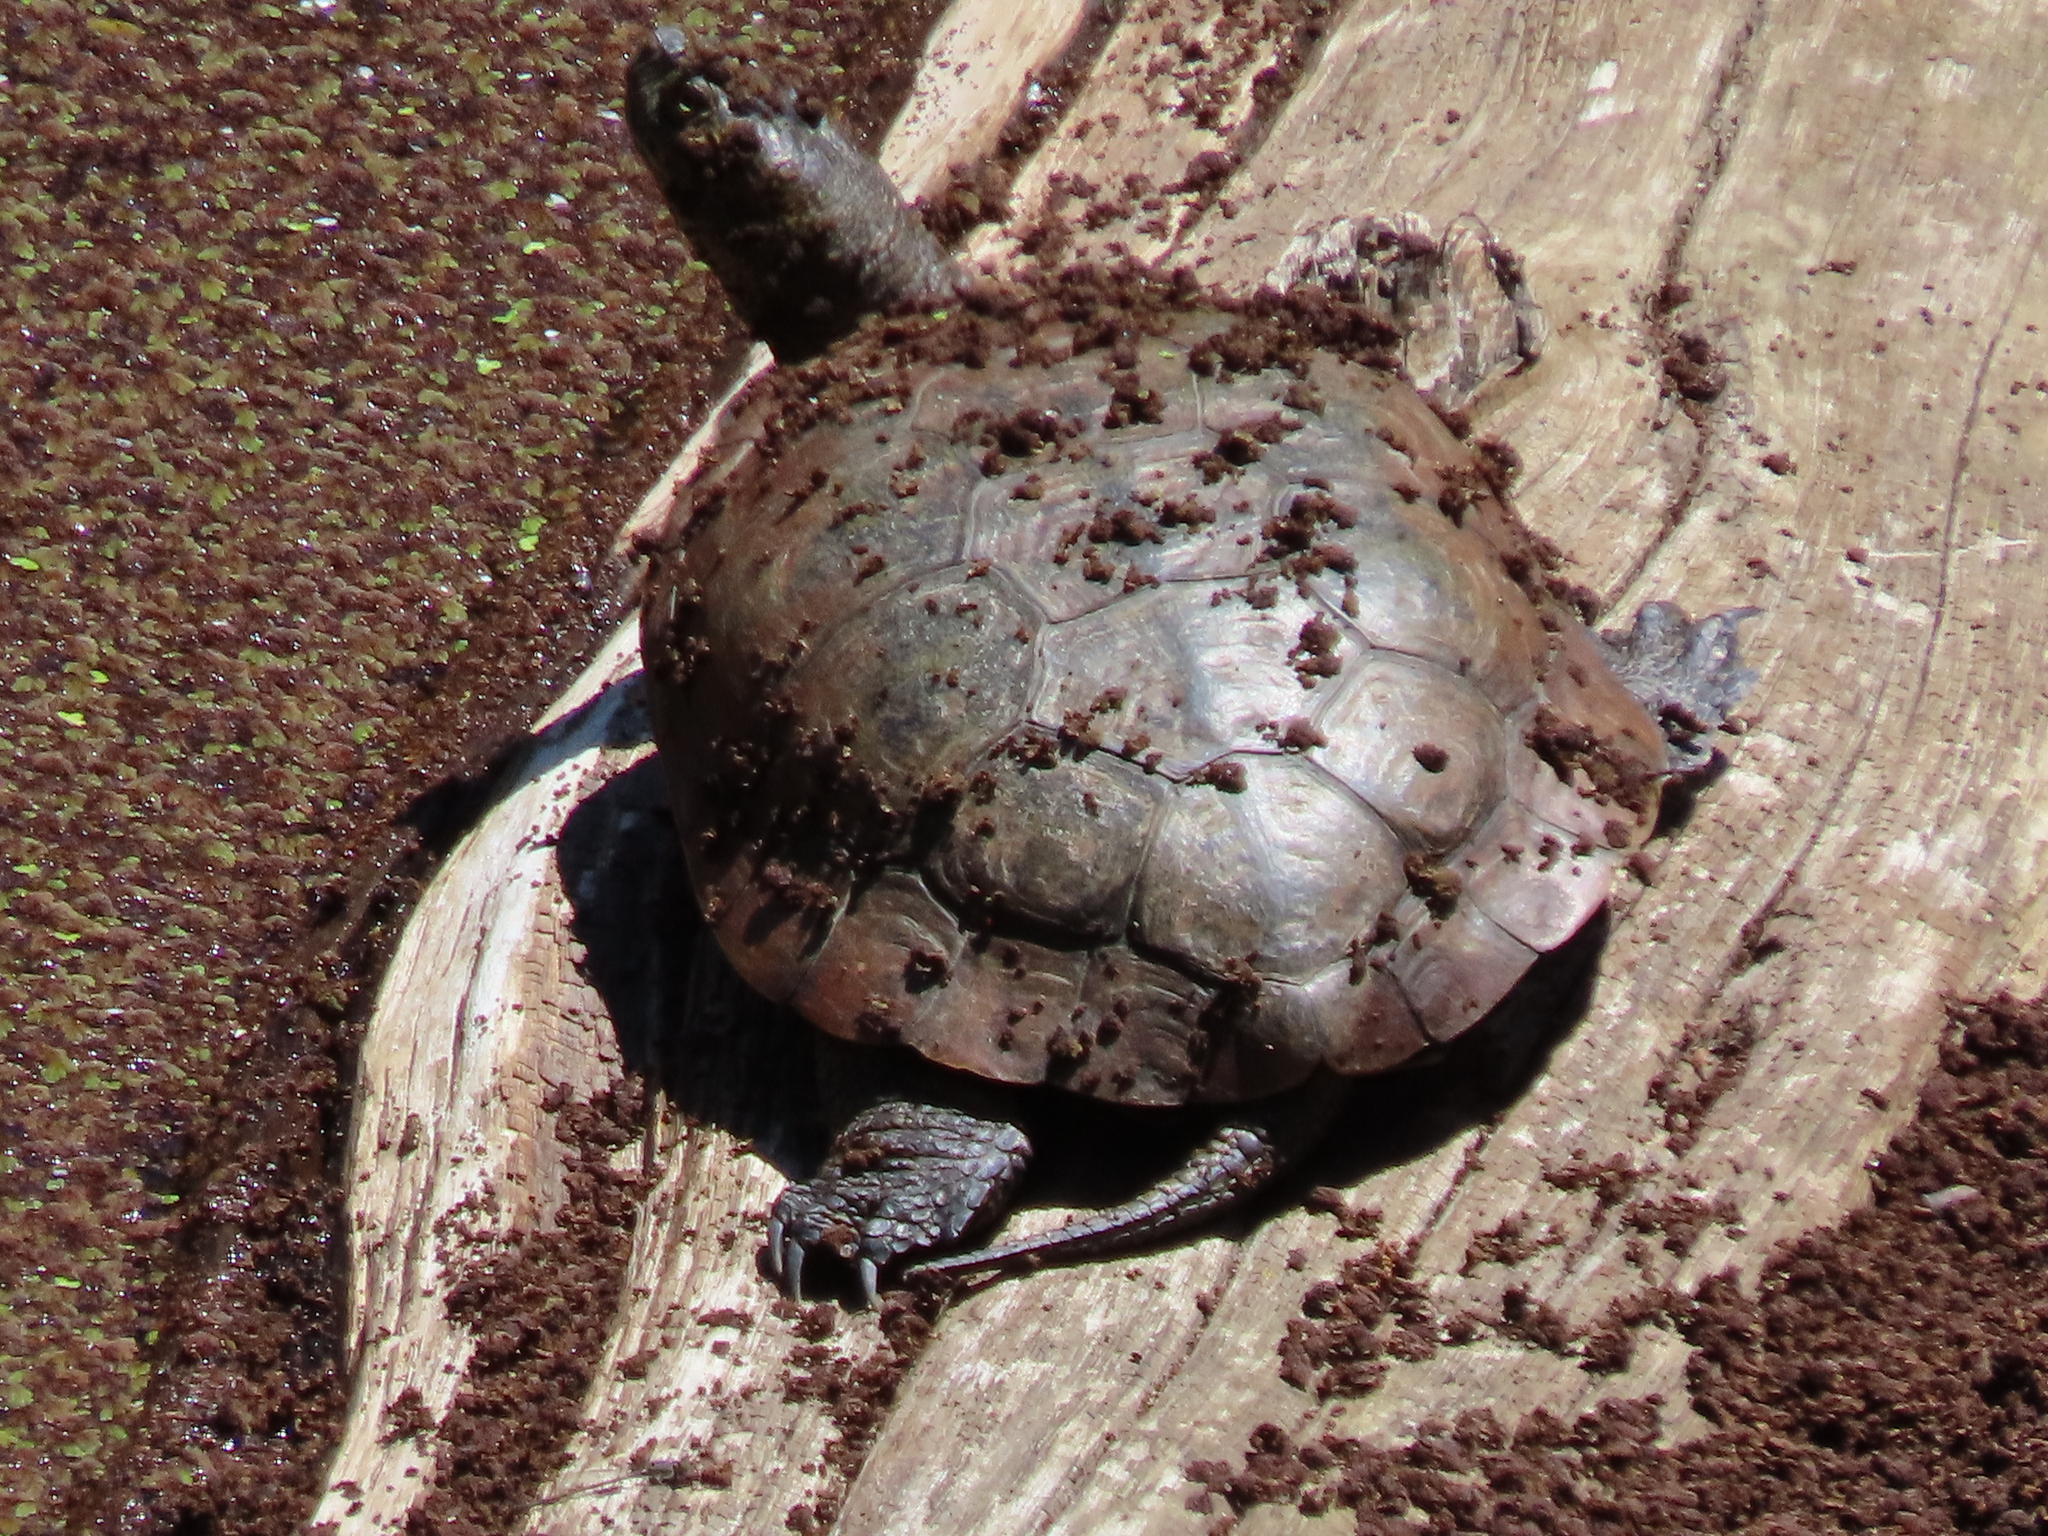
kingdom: Animalia
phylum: Chordata
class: Testudines
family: Emydidae
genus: Actinemys
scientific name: Actinemys marmorata
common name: Western pond turtle
